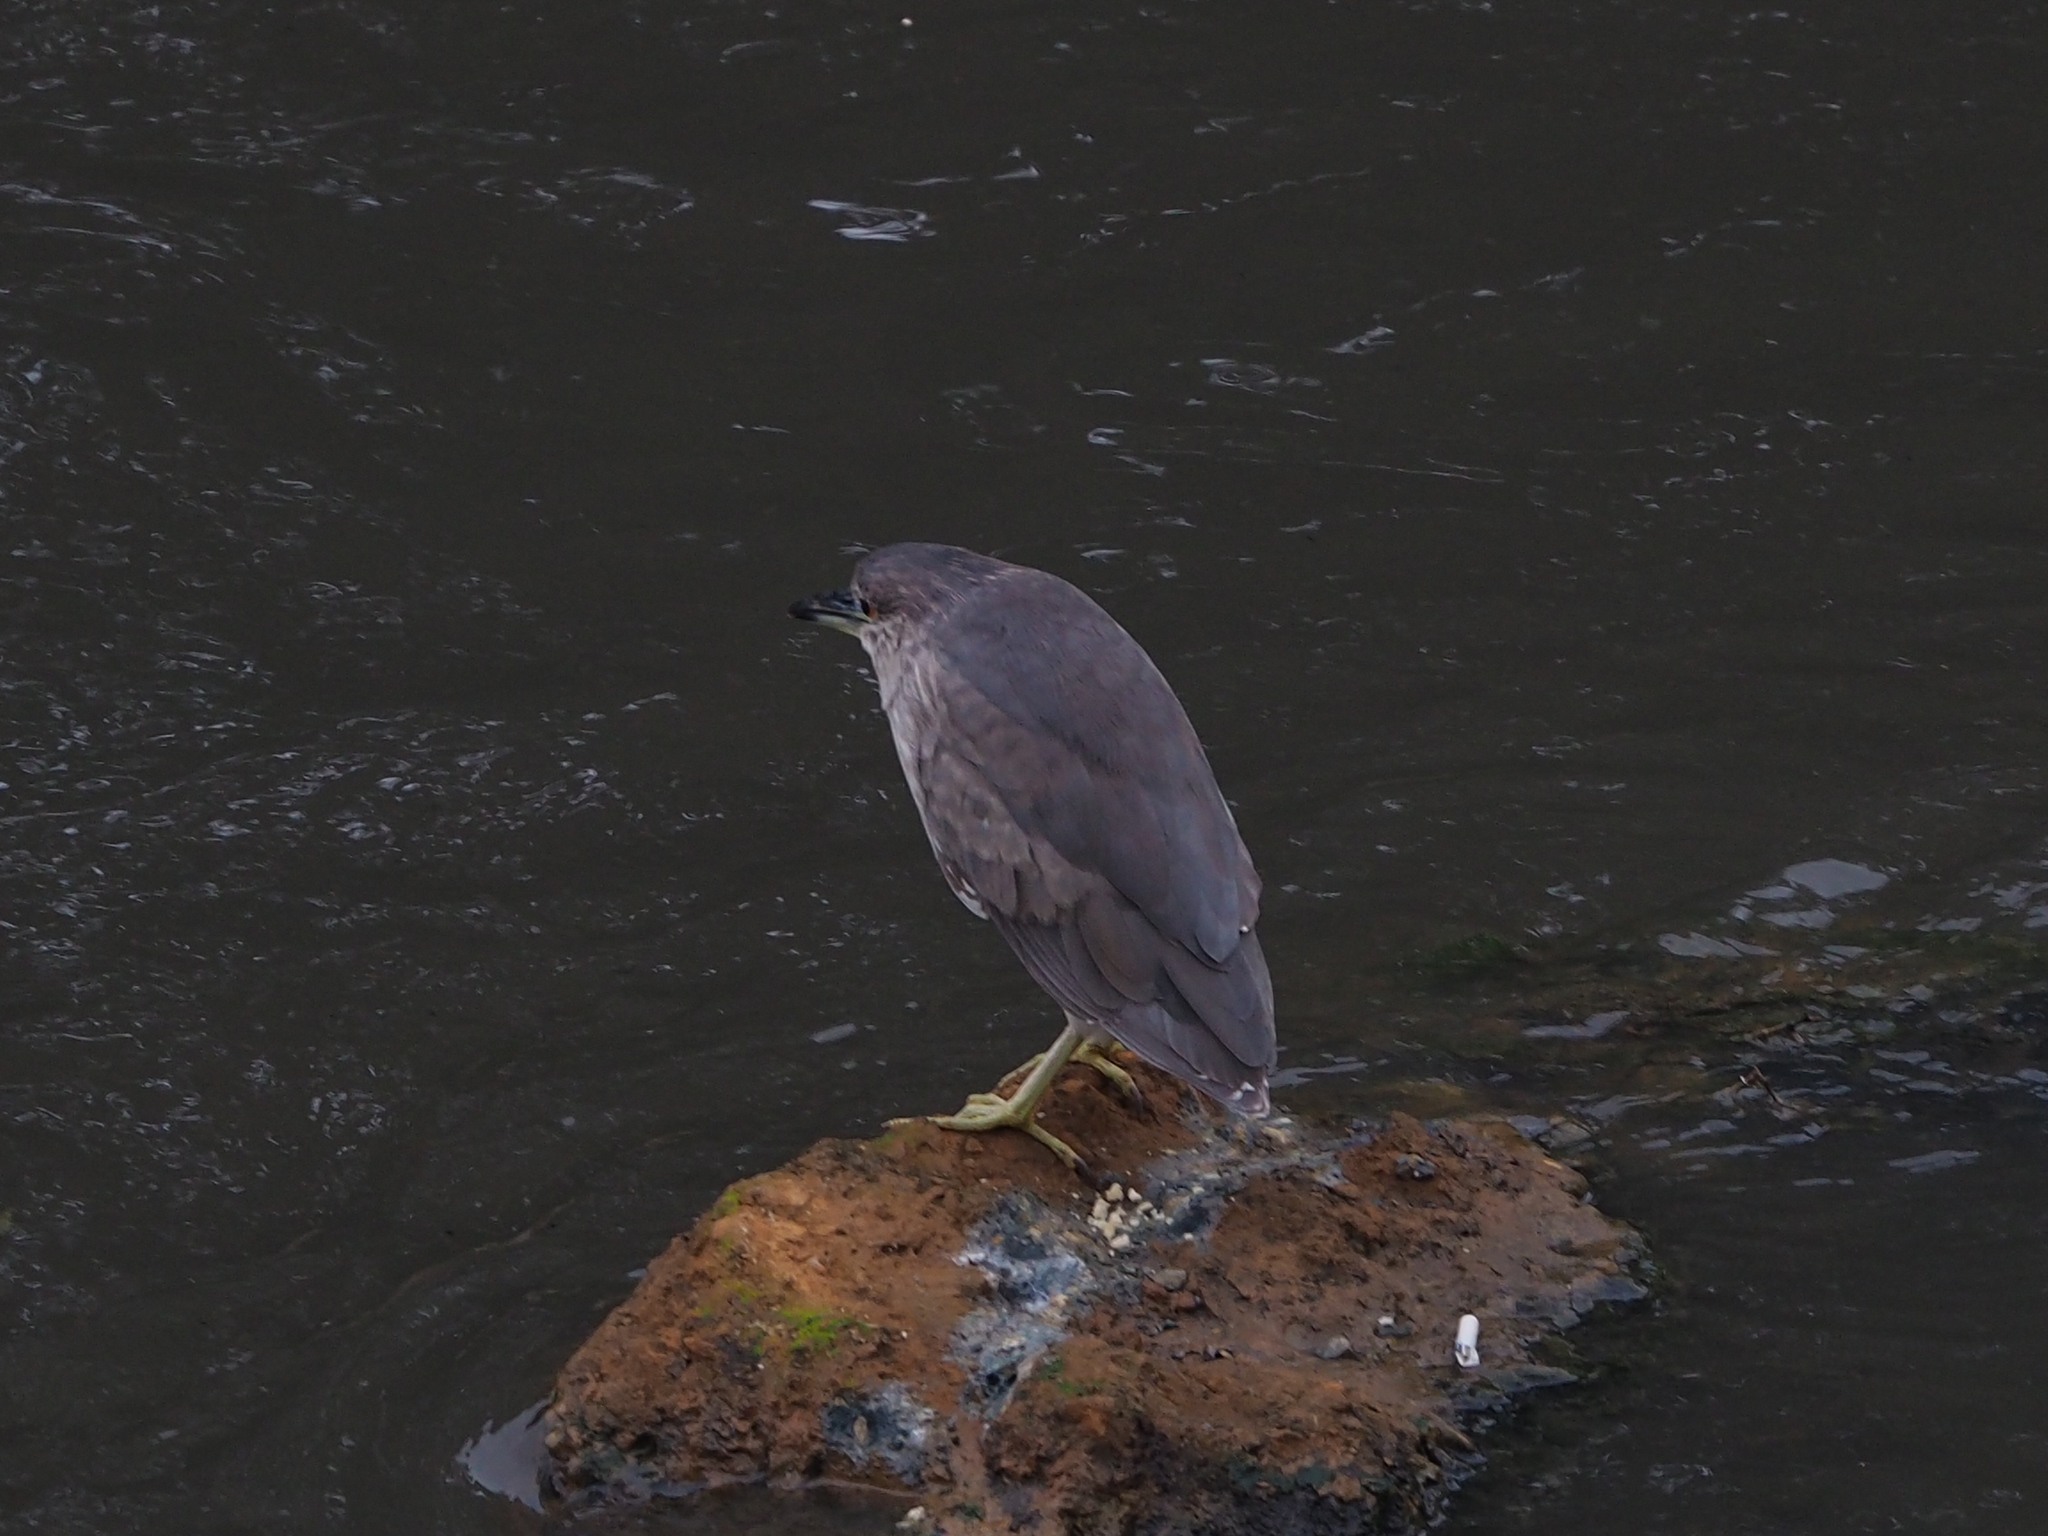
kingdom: Animalia
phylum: Chordata
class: Aves
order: Pelecaniformes
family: Ardeidae
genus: Nycticorax
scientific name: Nycticorax nycticorax
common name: Black-crowned night heron
